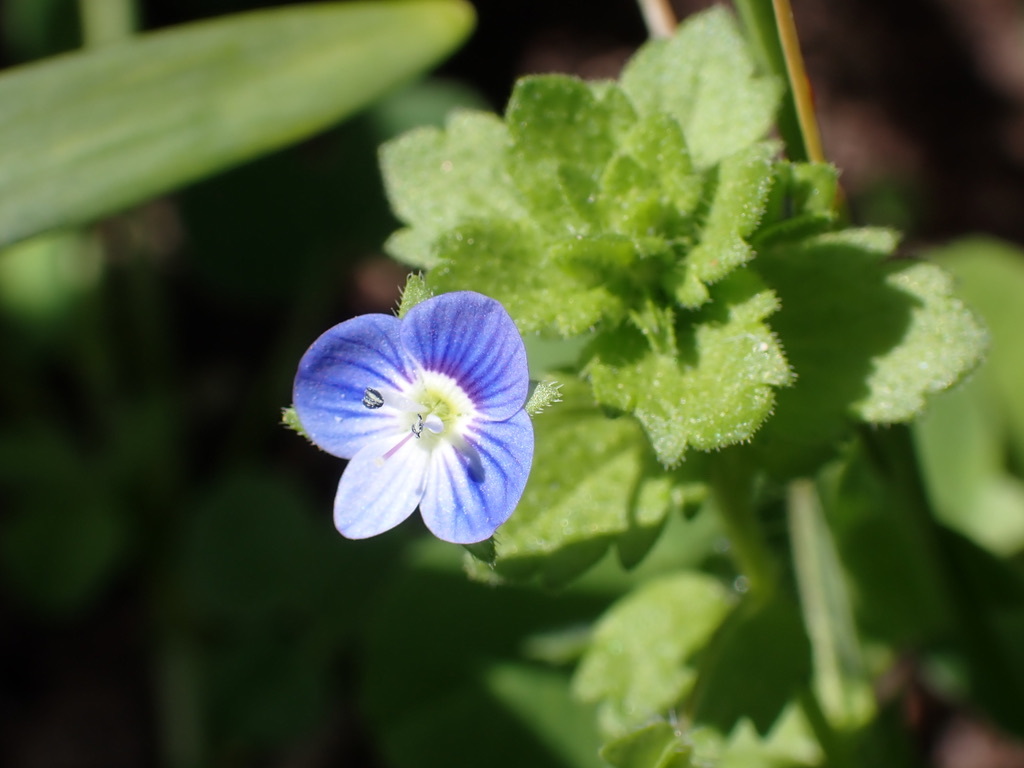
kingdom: Plantae
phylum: Tracheophyta
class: Magnoliopsida
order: Lamiales
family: Plantaginaceae
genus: Veronica
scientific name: Veronica persica
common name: Common field-speedwell
